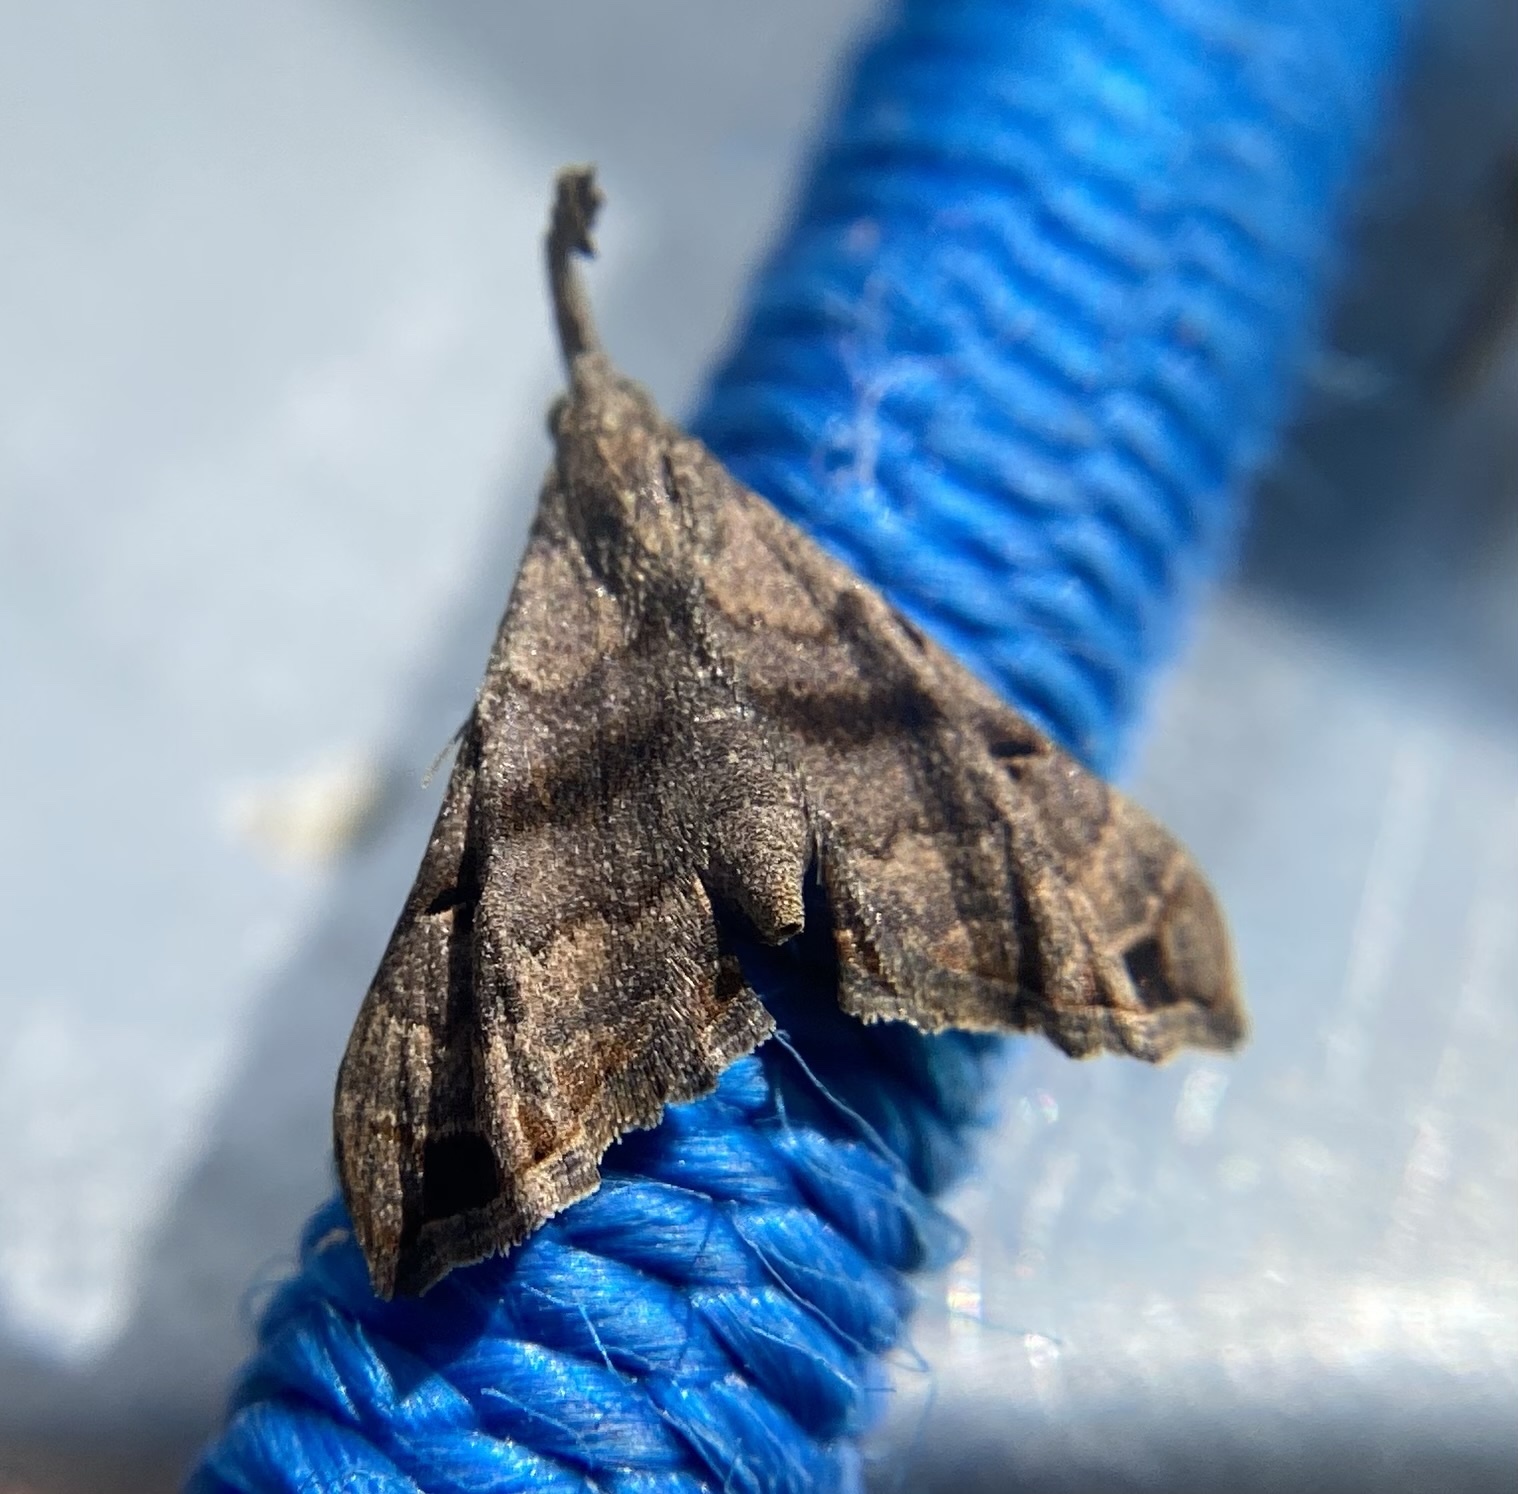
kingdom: Animalia
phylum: Arthropoda
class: Insecta
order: Lepidoptera
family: Erebidae
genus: Palthis
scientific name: Palthis asopialis
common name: Faint-spotted palthis moth
